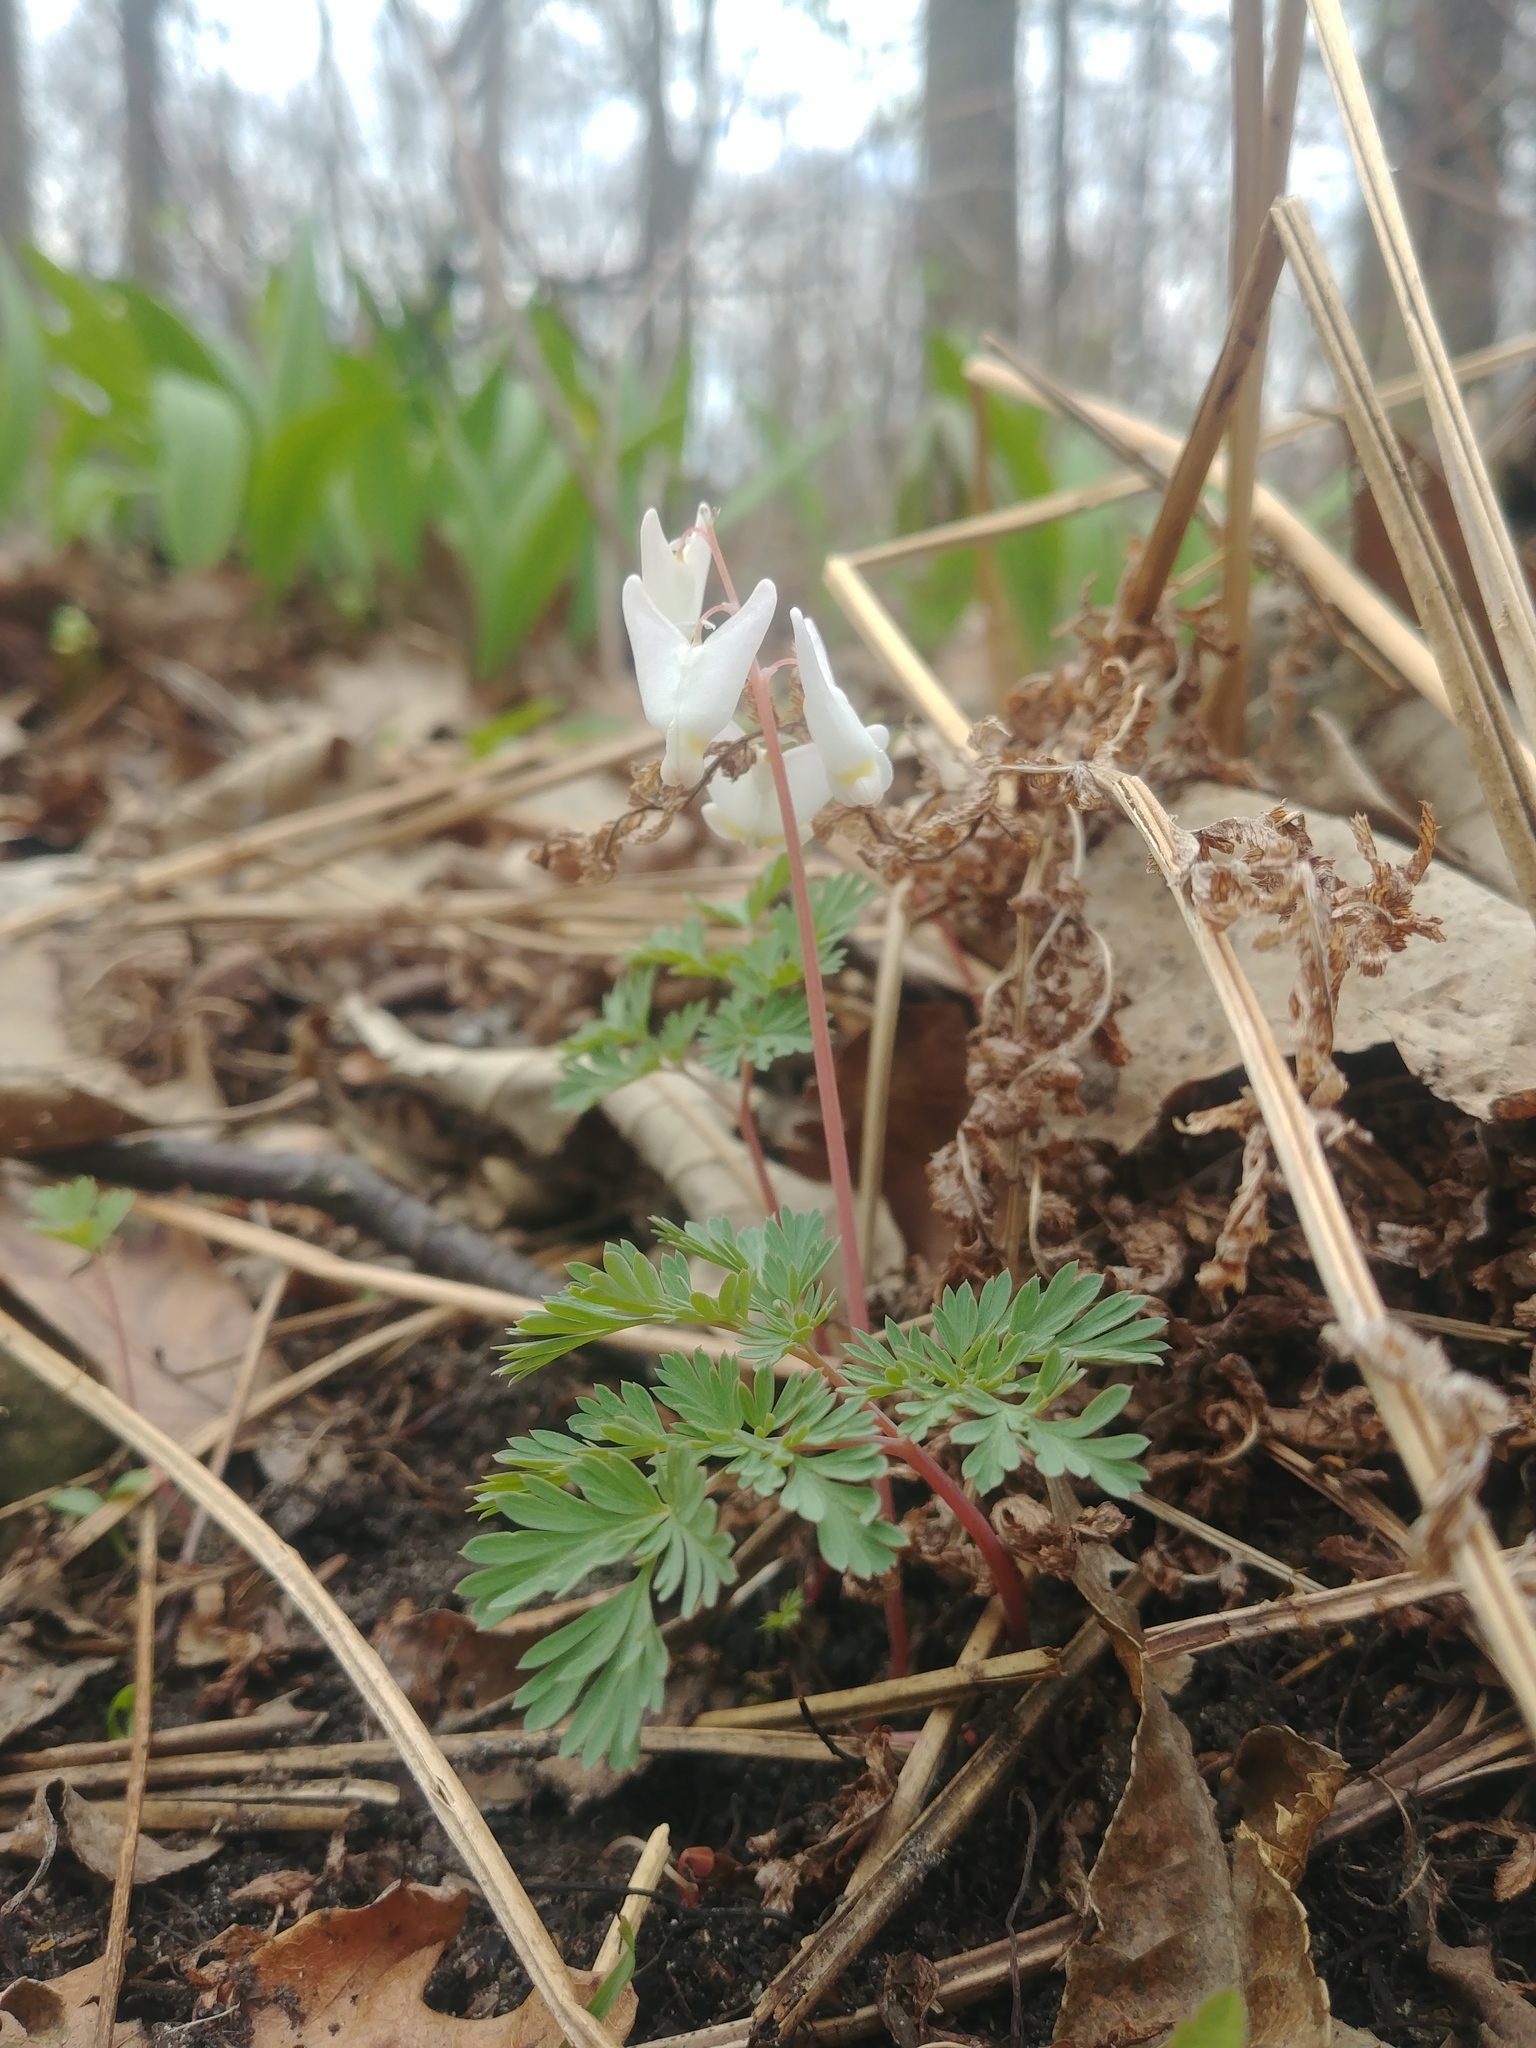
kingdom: Plantae
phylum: Tracheophyta
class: Magnoliopsida
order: Ranunculales
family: Papaveraceae
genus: Dicentra
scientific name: Dicentra cucullaria
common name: Dutchman's breeches
